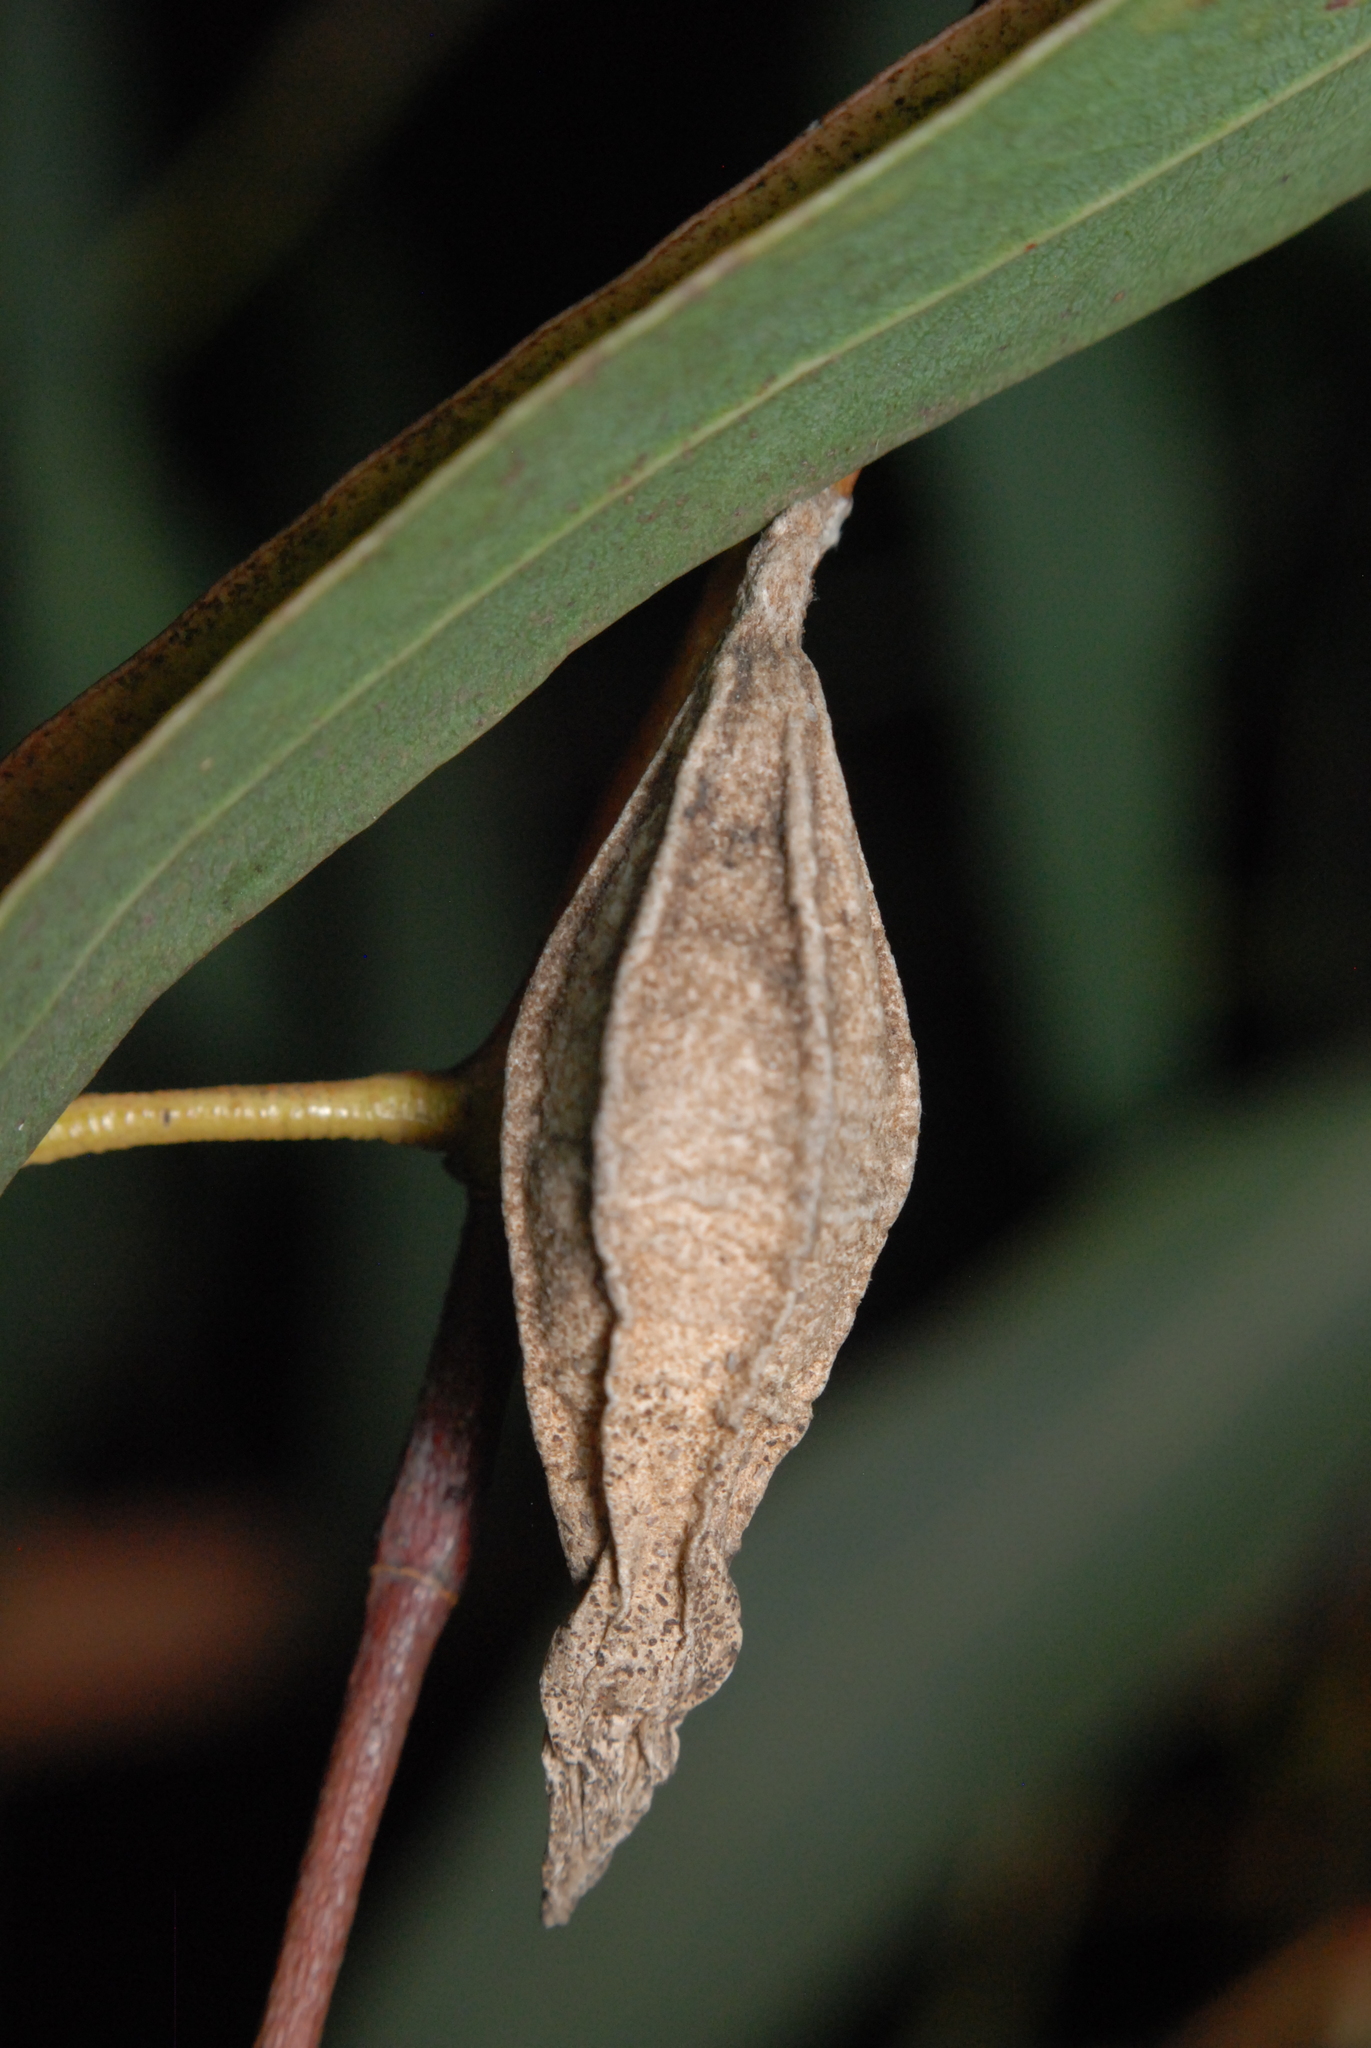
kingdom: Animalia
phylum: Arthropoda
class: Insecta
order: Lepidoptera
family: Psychidae
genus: Hyalarcta
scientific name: Hyalarcta nigrescens
